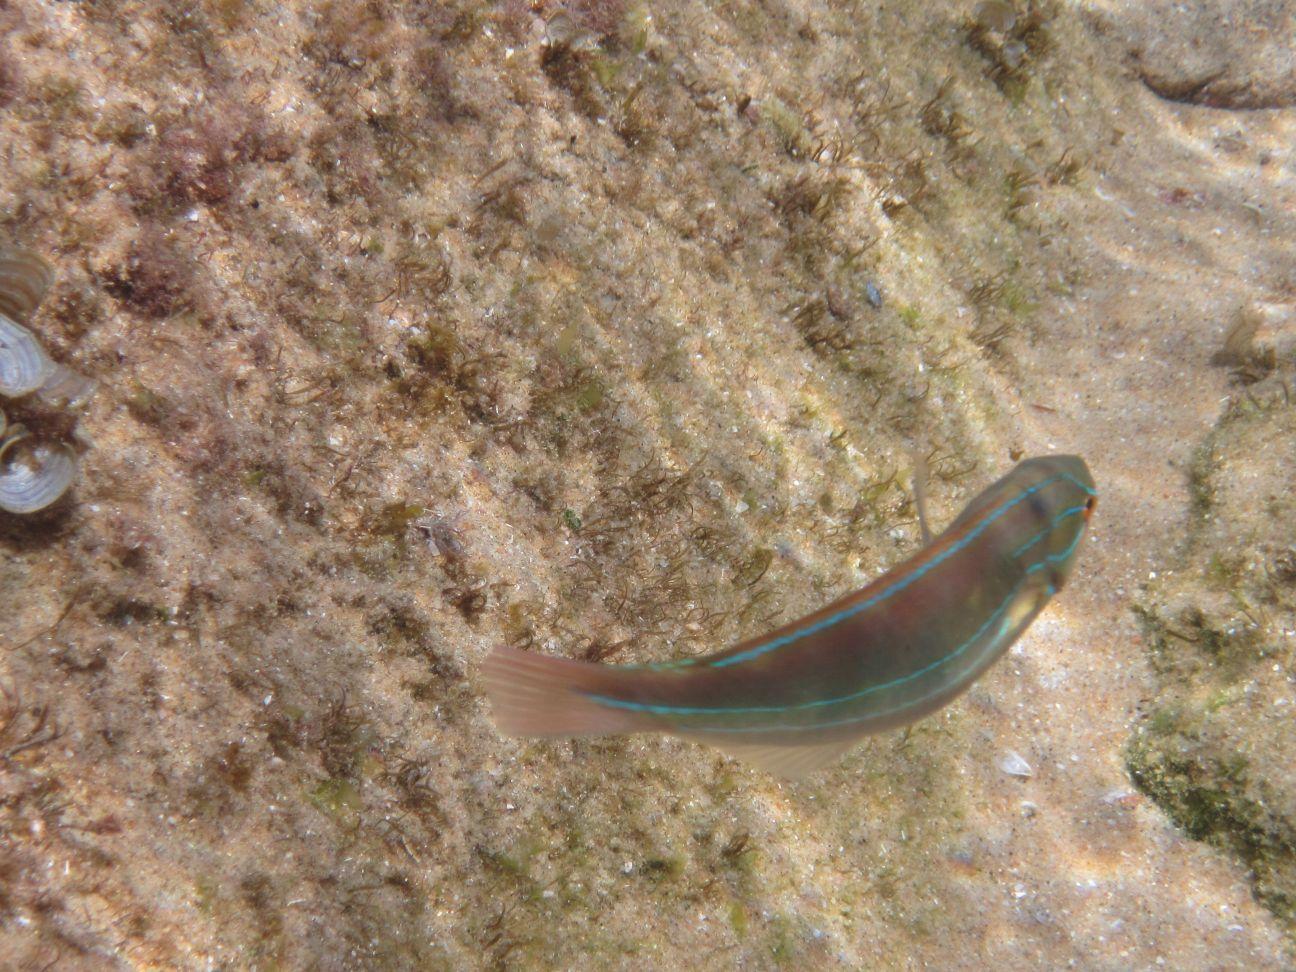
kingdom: Animalia
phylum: Chordata
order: Perciformes
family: Labridae
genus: Stethojulis
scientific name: Stethojulis albovittata
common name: Bluelined wrasse
